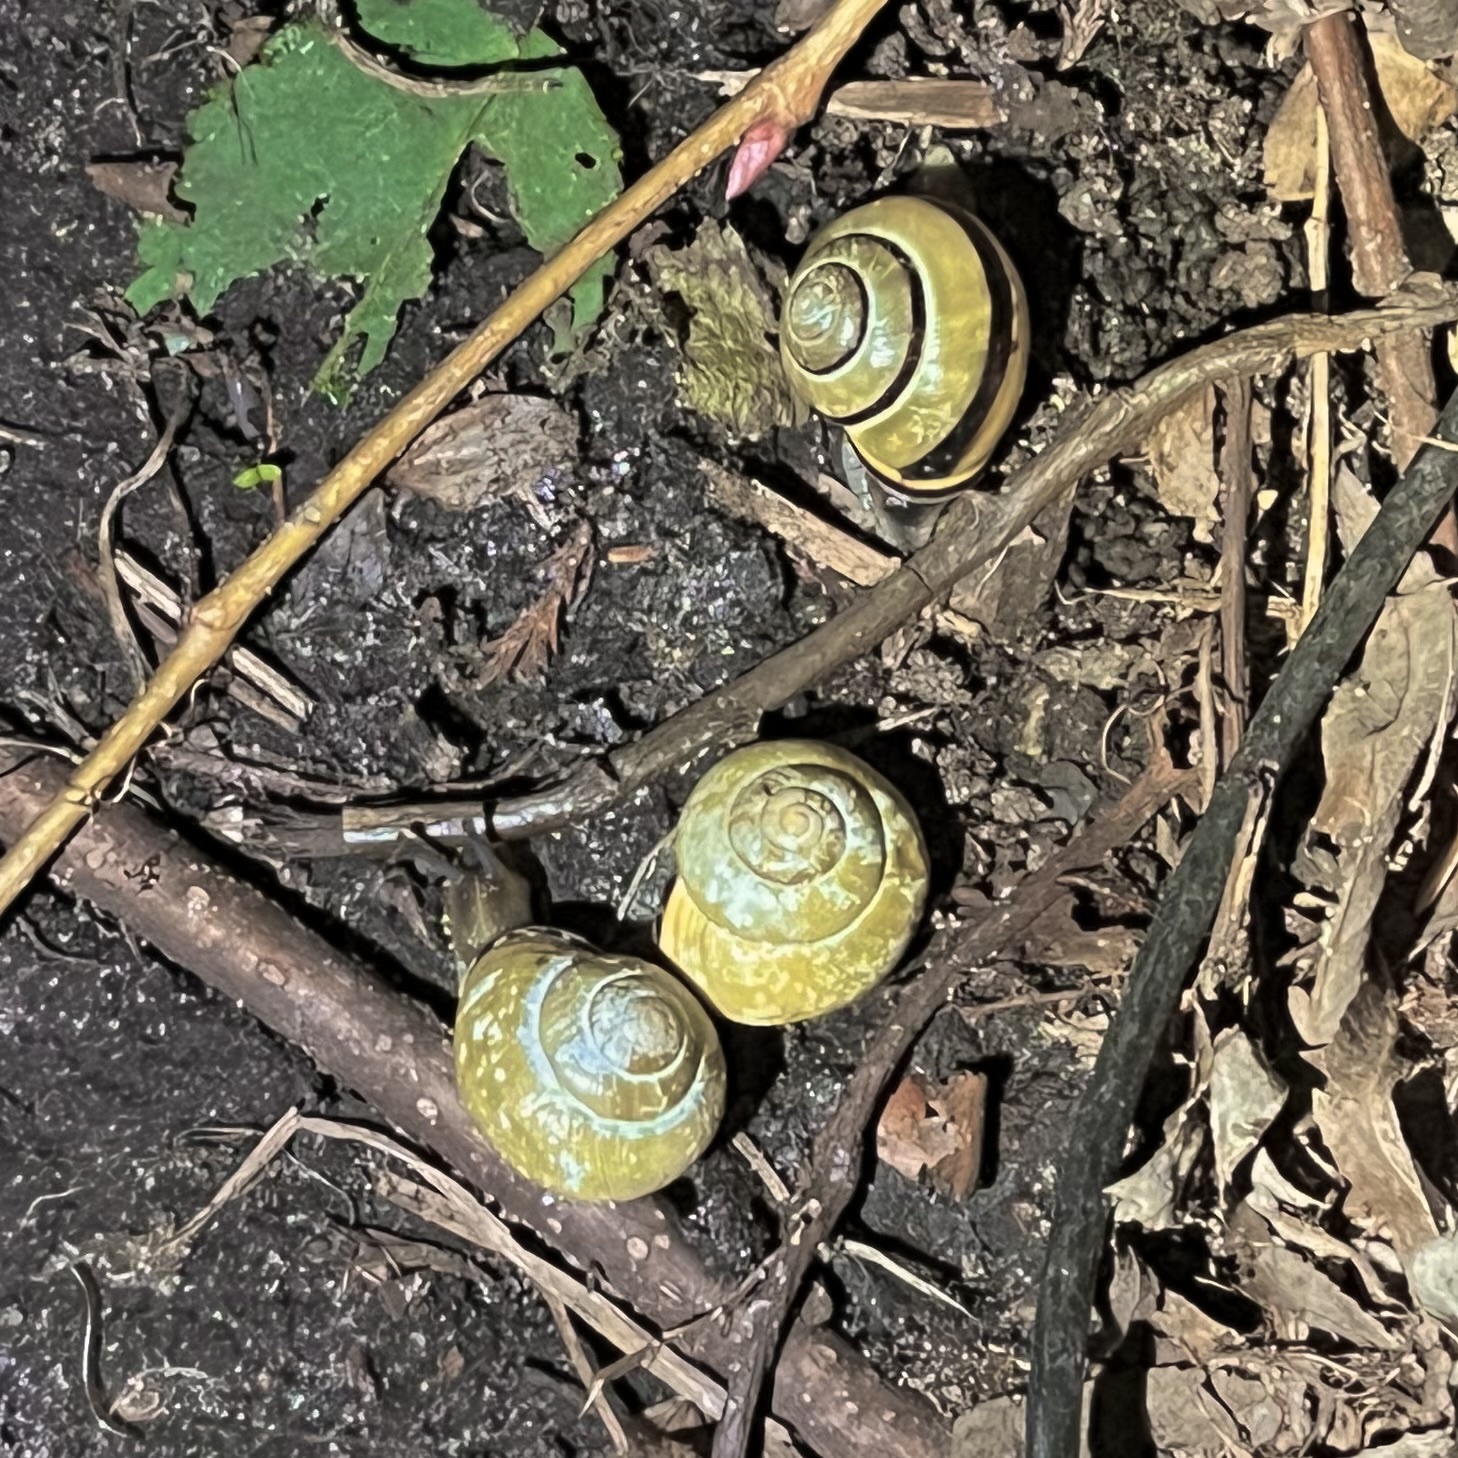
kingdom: Animalia
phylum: Mollusca
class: Gastropoda
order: Stylommatophora
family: Helicidae
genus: Cepaea
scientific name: Cepaea nemoralis
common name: Grovesnail
